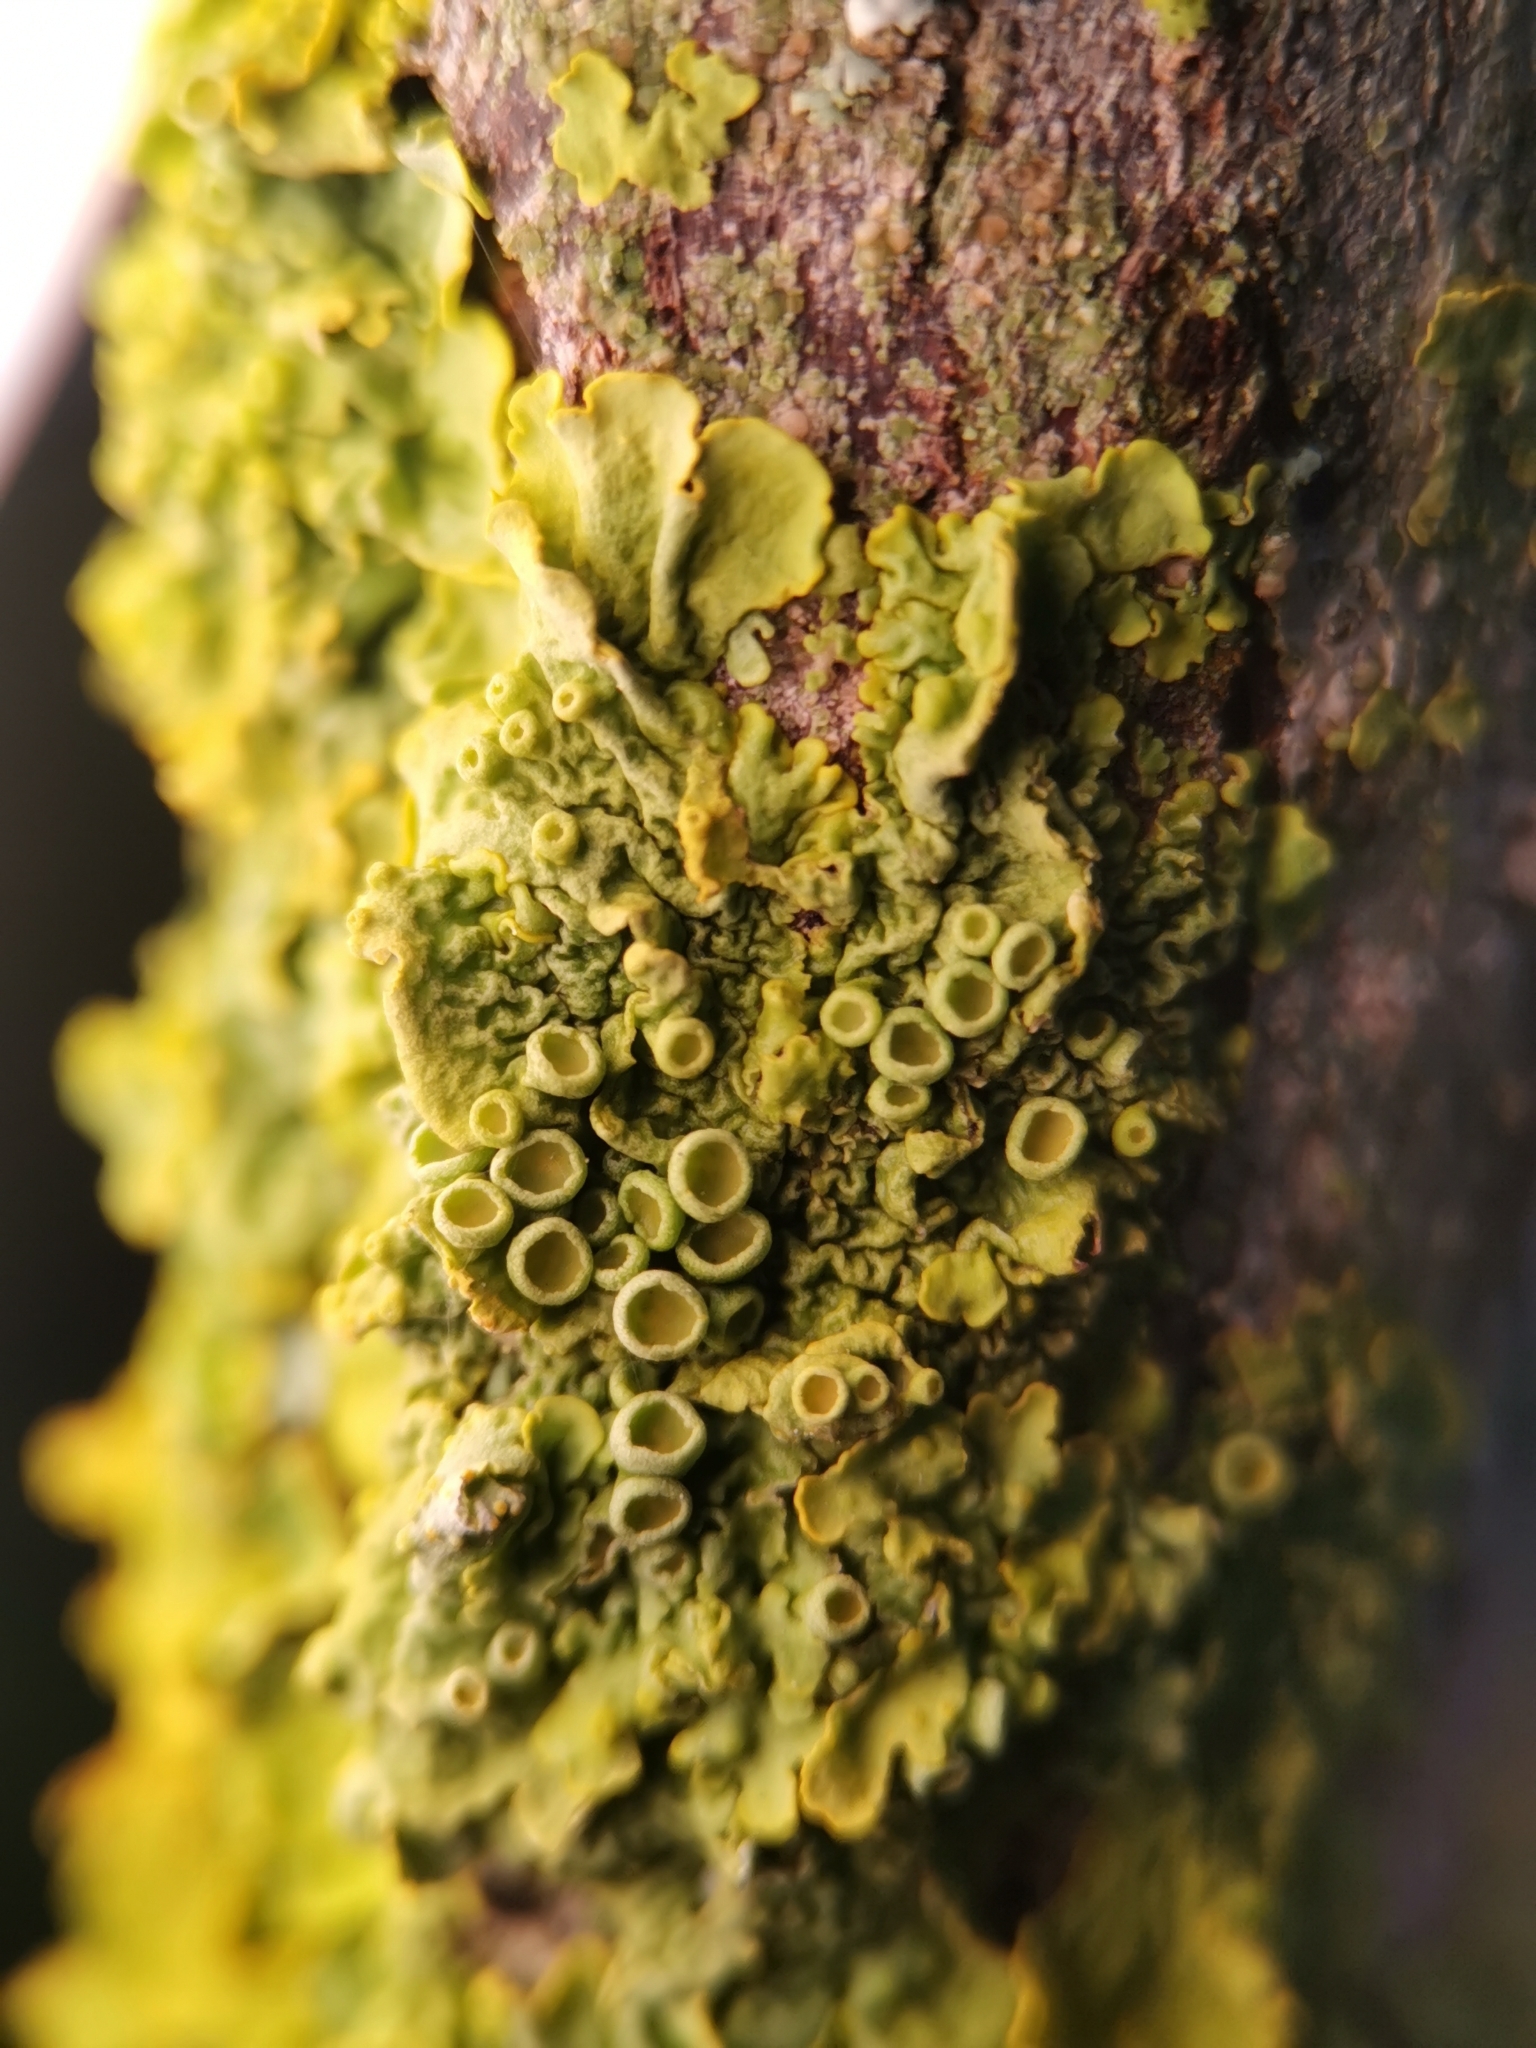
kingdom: Fungi
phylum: Ascomycota
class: Lecanoromycetes
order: Teloschistales
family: Teloschistaceae
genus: Xanthoria
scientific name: Xanthoria parietina
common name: Common orange lichen
